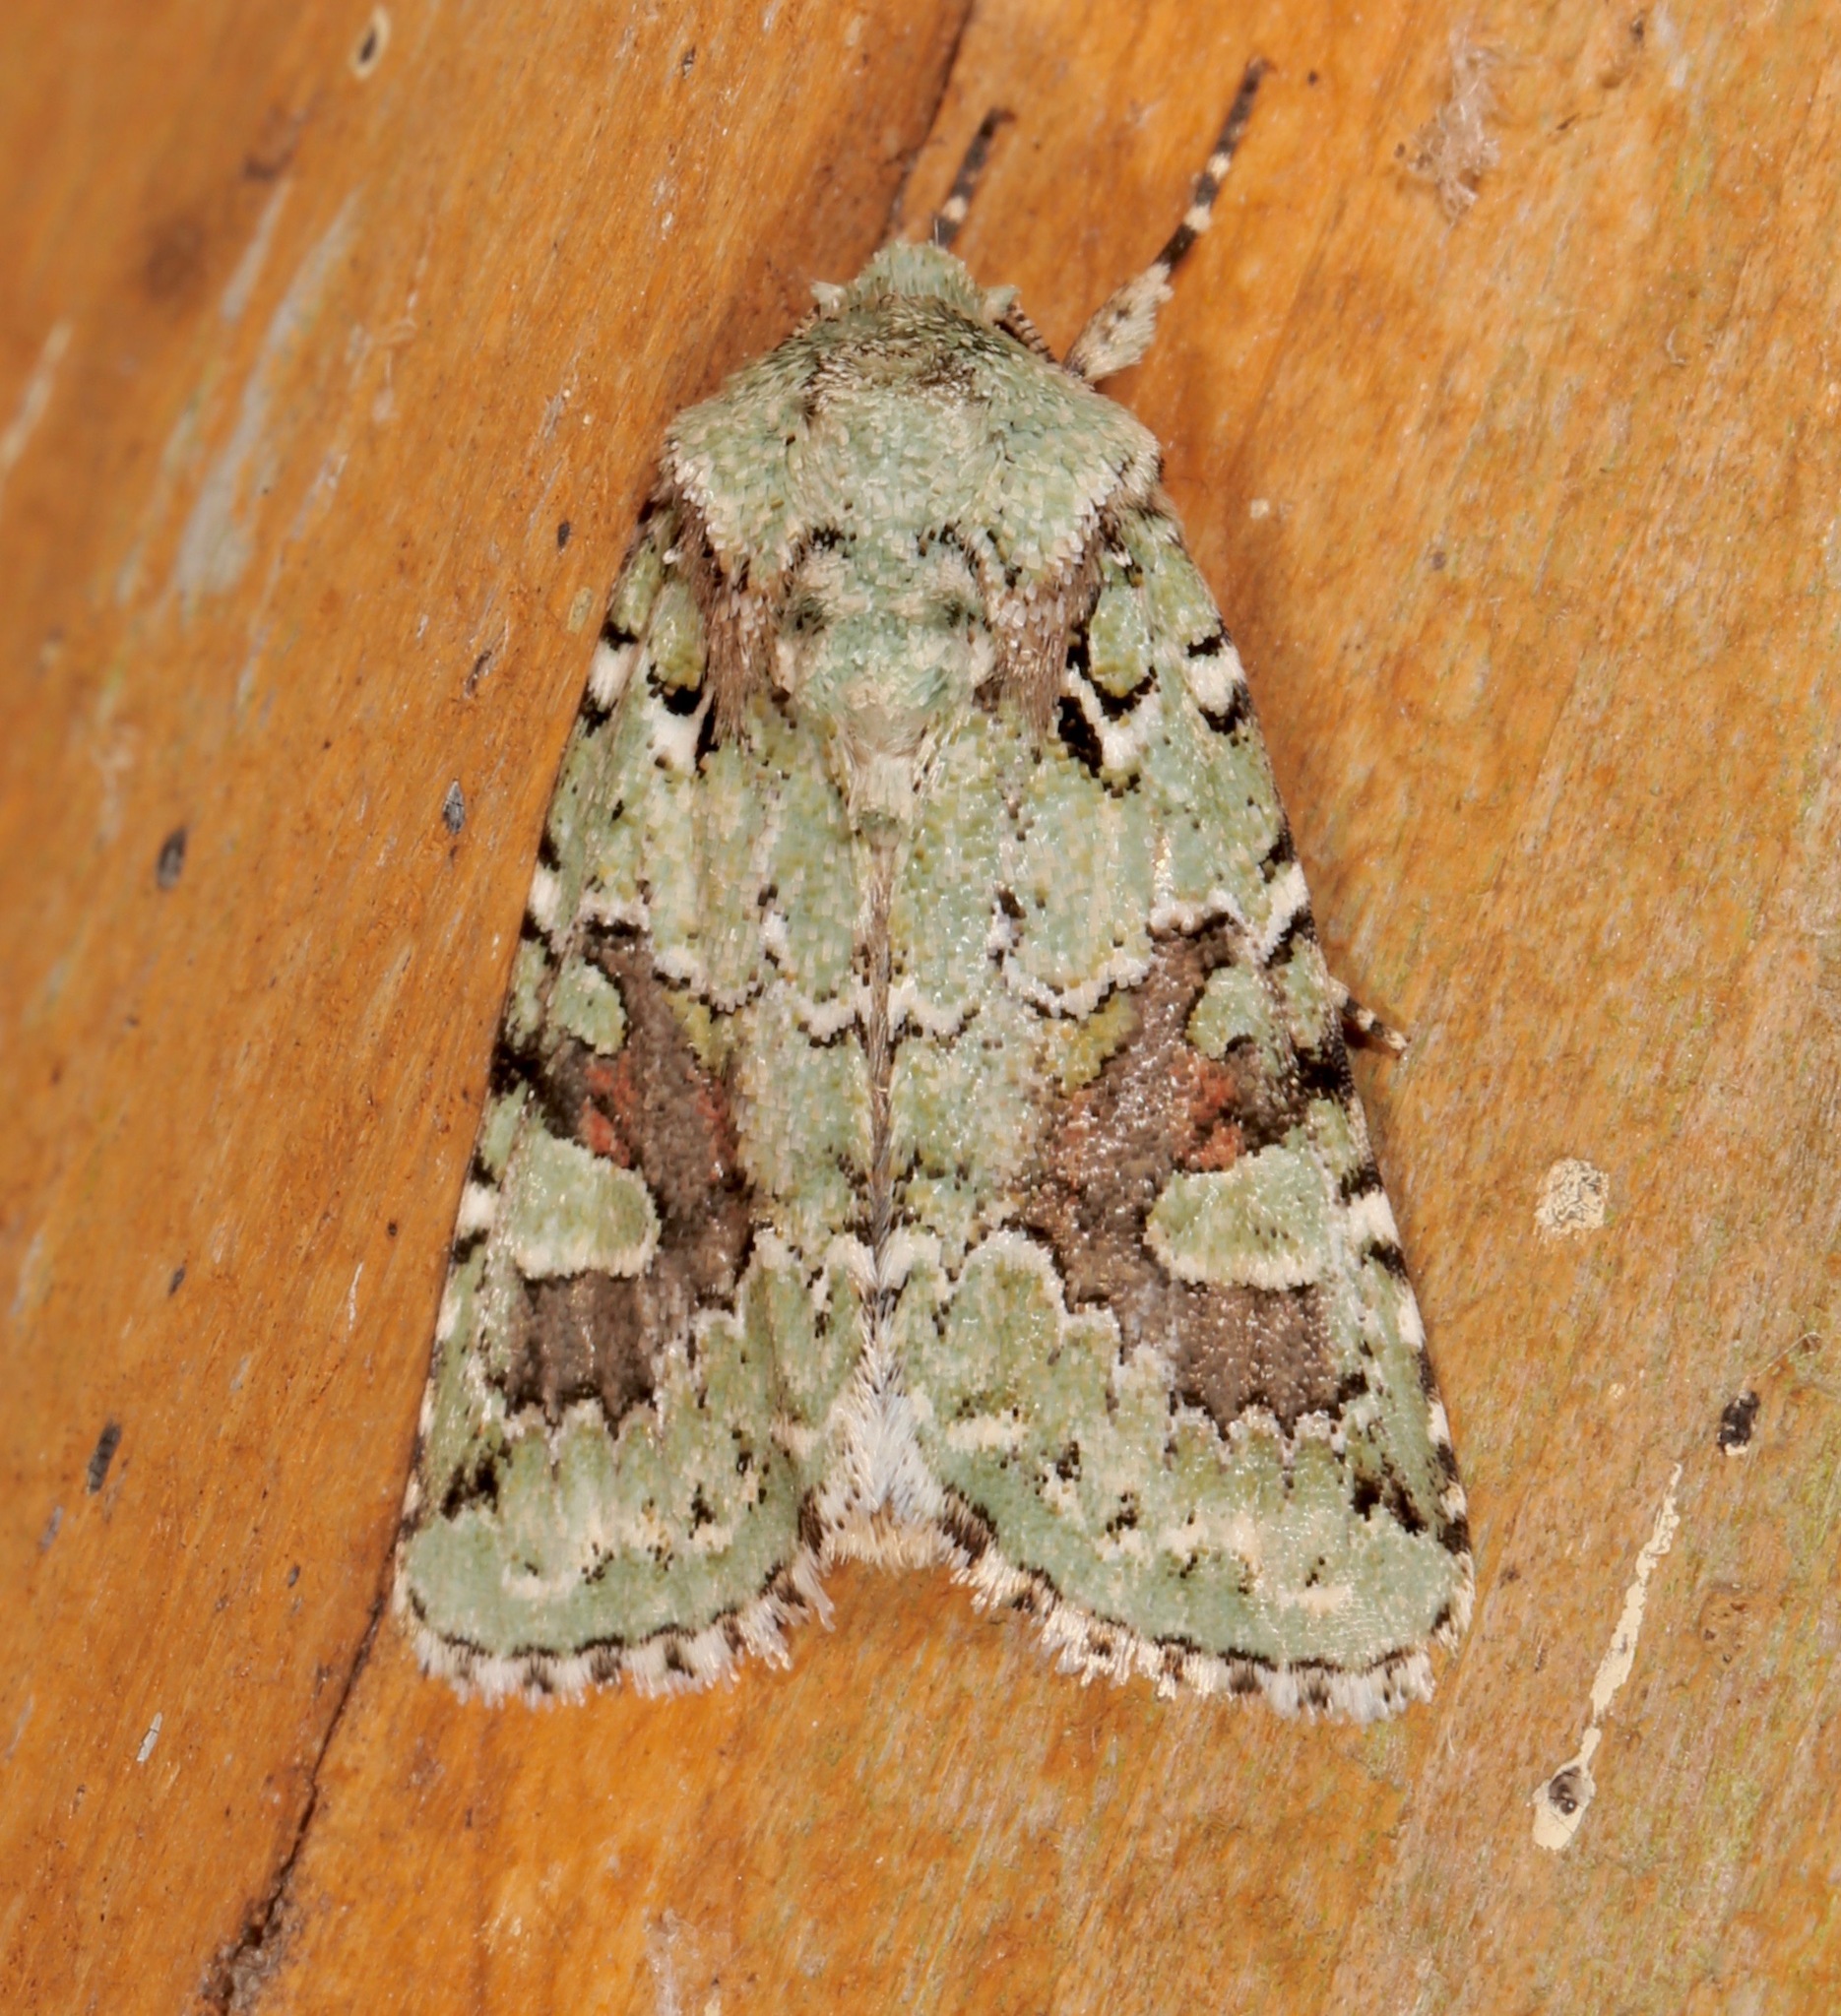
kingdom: Animalia
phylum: Arthropoda
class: Insecta
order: Lepidoptera
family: Noctuidae
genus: Lacinipolia
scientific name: Lacinipolia laudabilis
